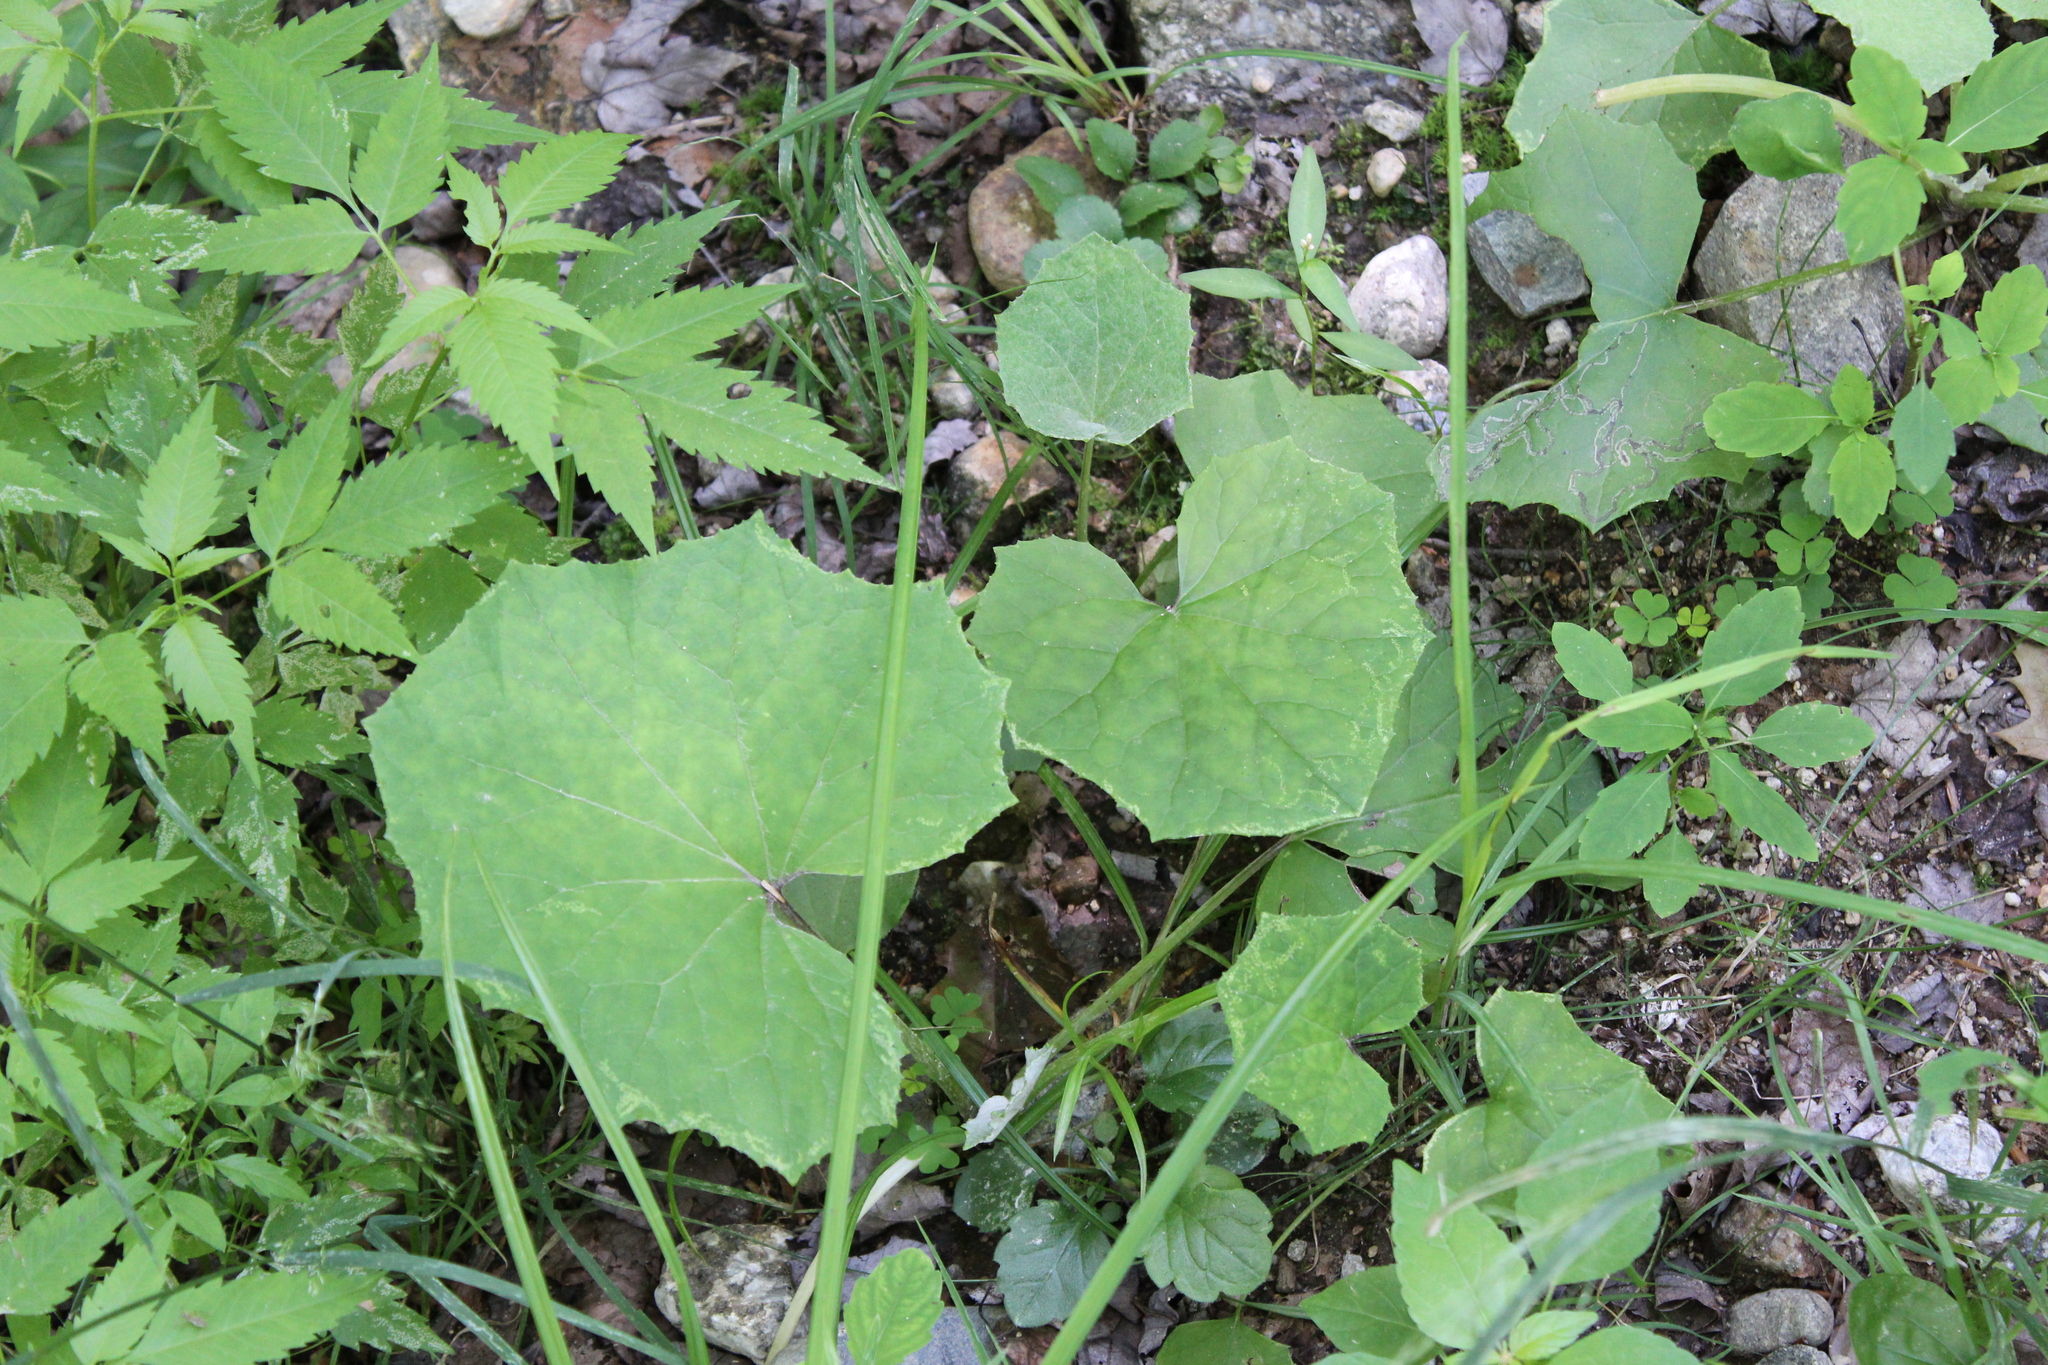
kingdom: Plantae
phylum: Tracheophyta
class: Magnoliopsida
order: Asterales
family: Asteraceae
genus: Tussilago
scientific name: Tussilago farfara
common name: Coltsfoot
